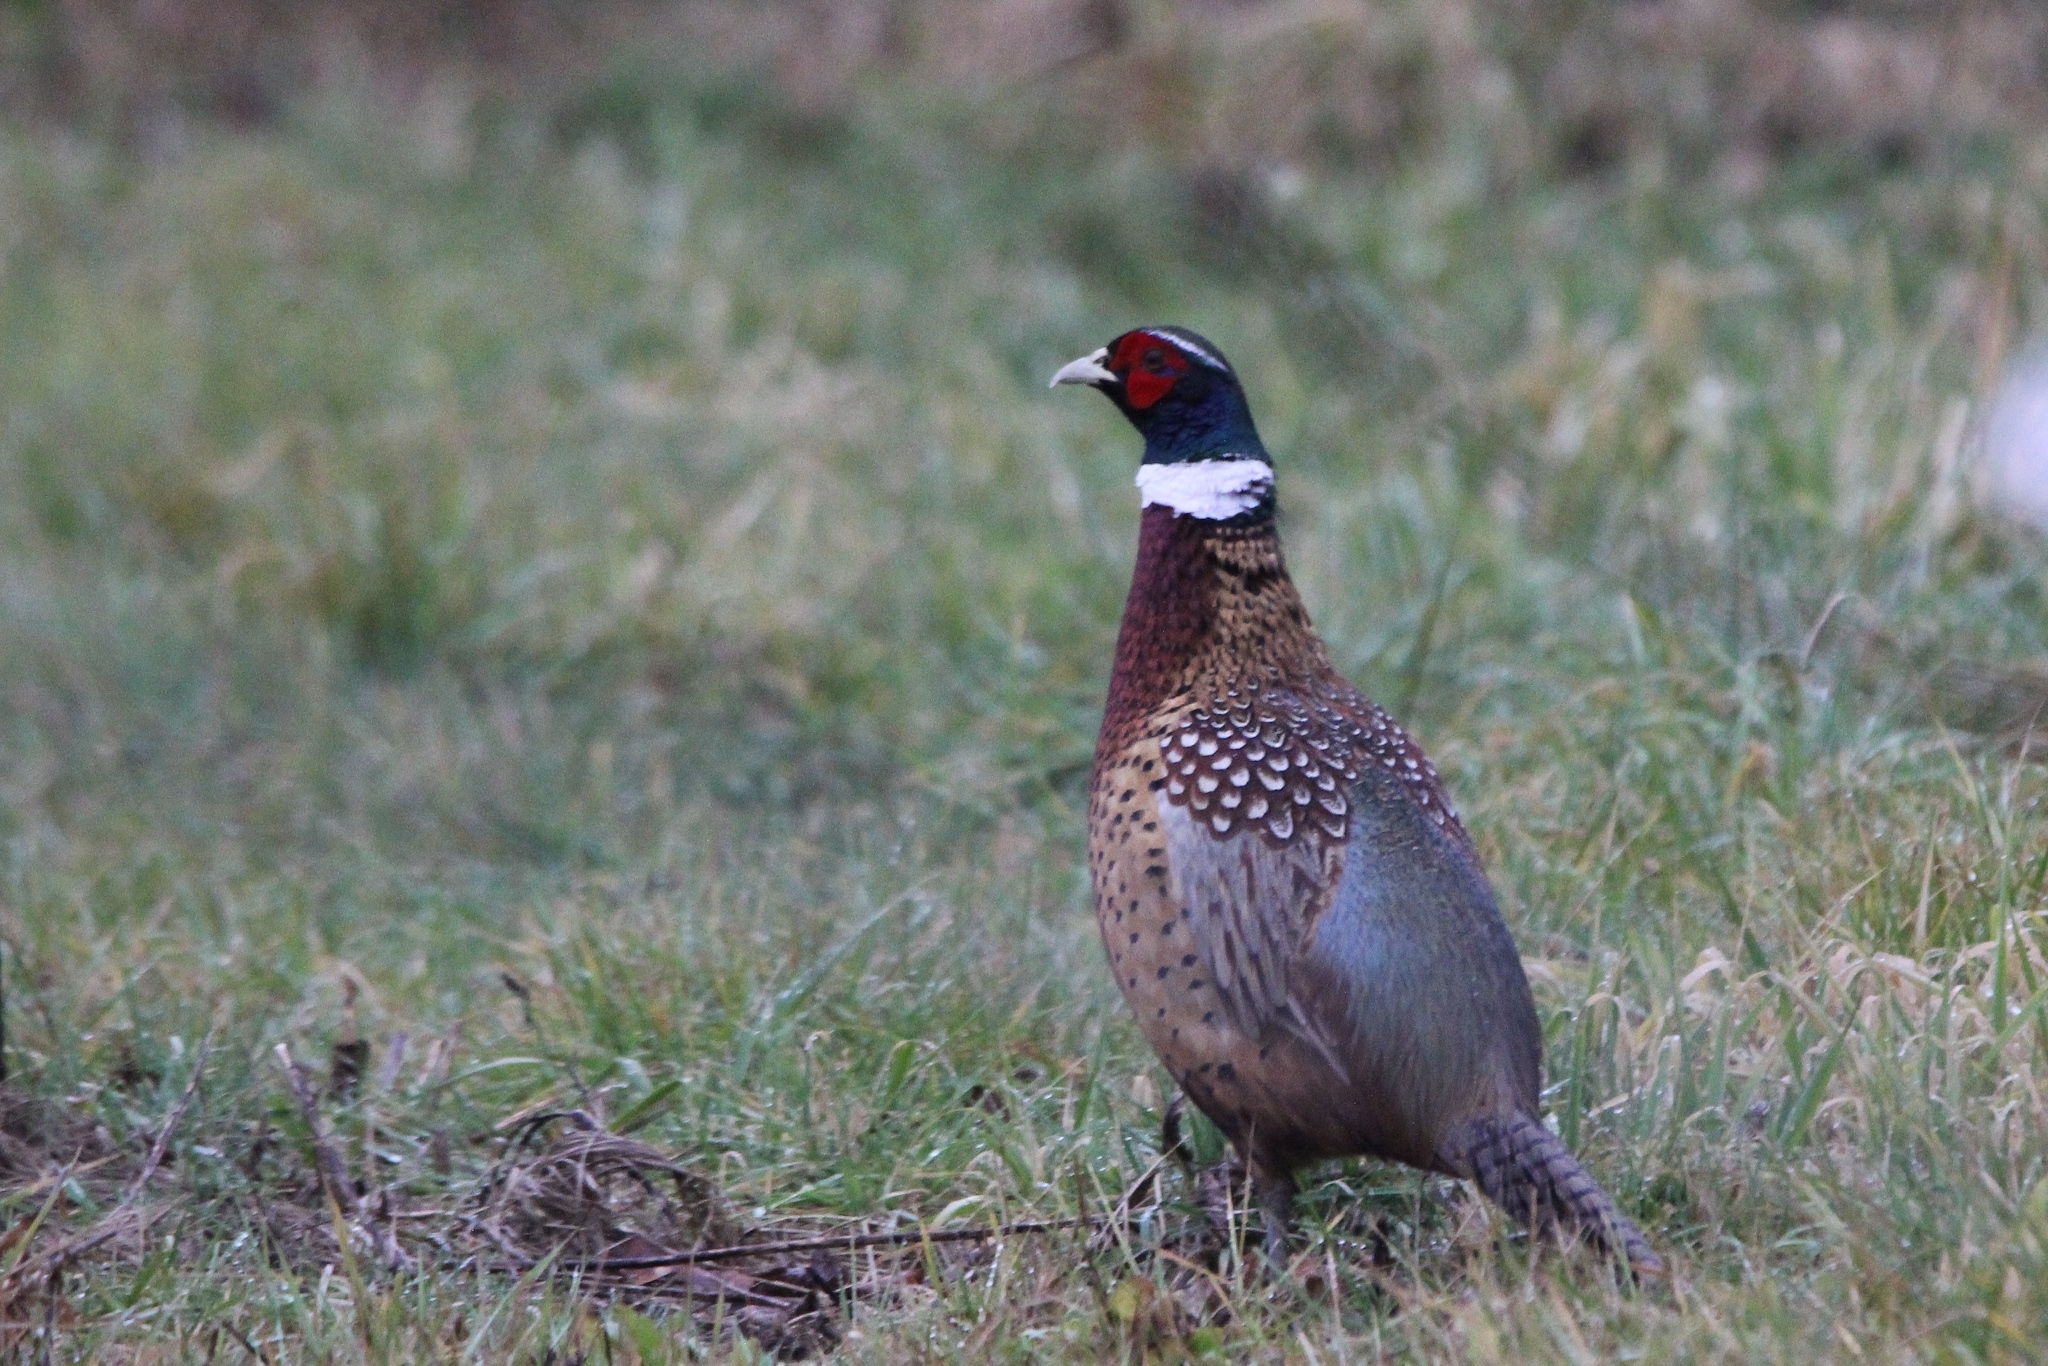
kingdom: Animalia
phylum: Chordata
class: Aves
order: Galliformes
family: Phasianidae
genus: Phasianus
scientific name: Phasianus colchicus
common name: Common pheasant
